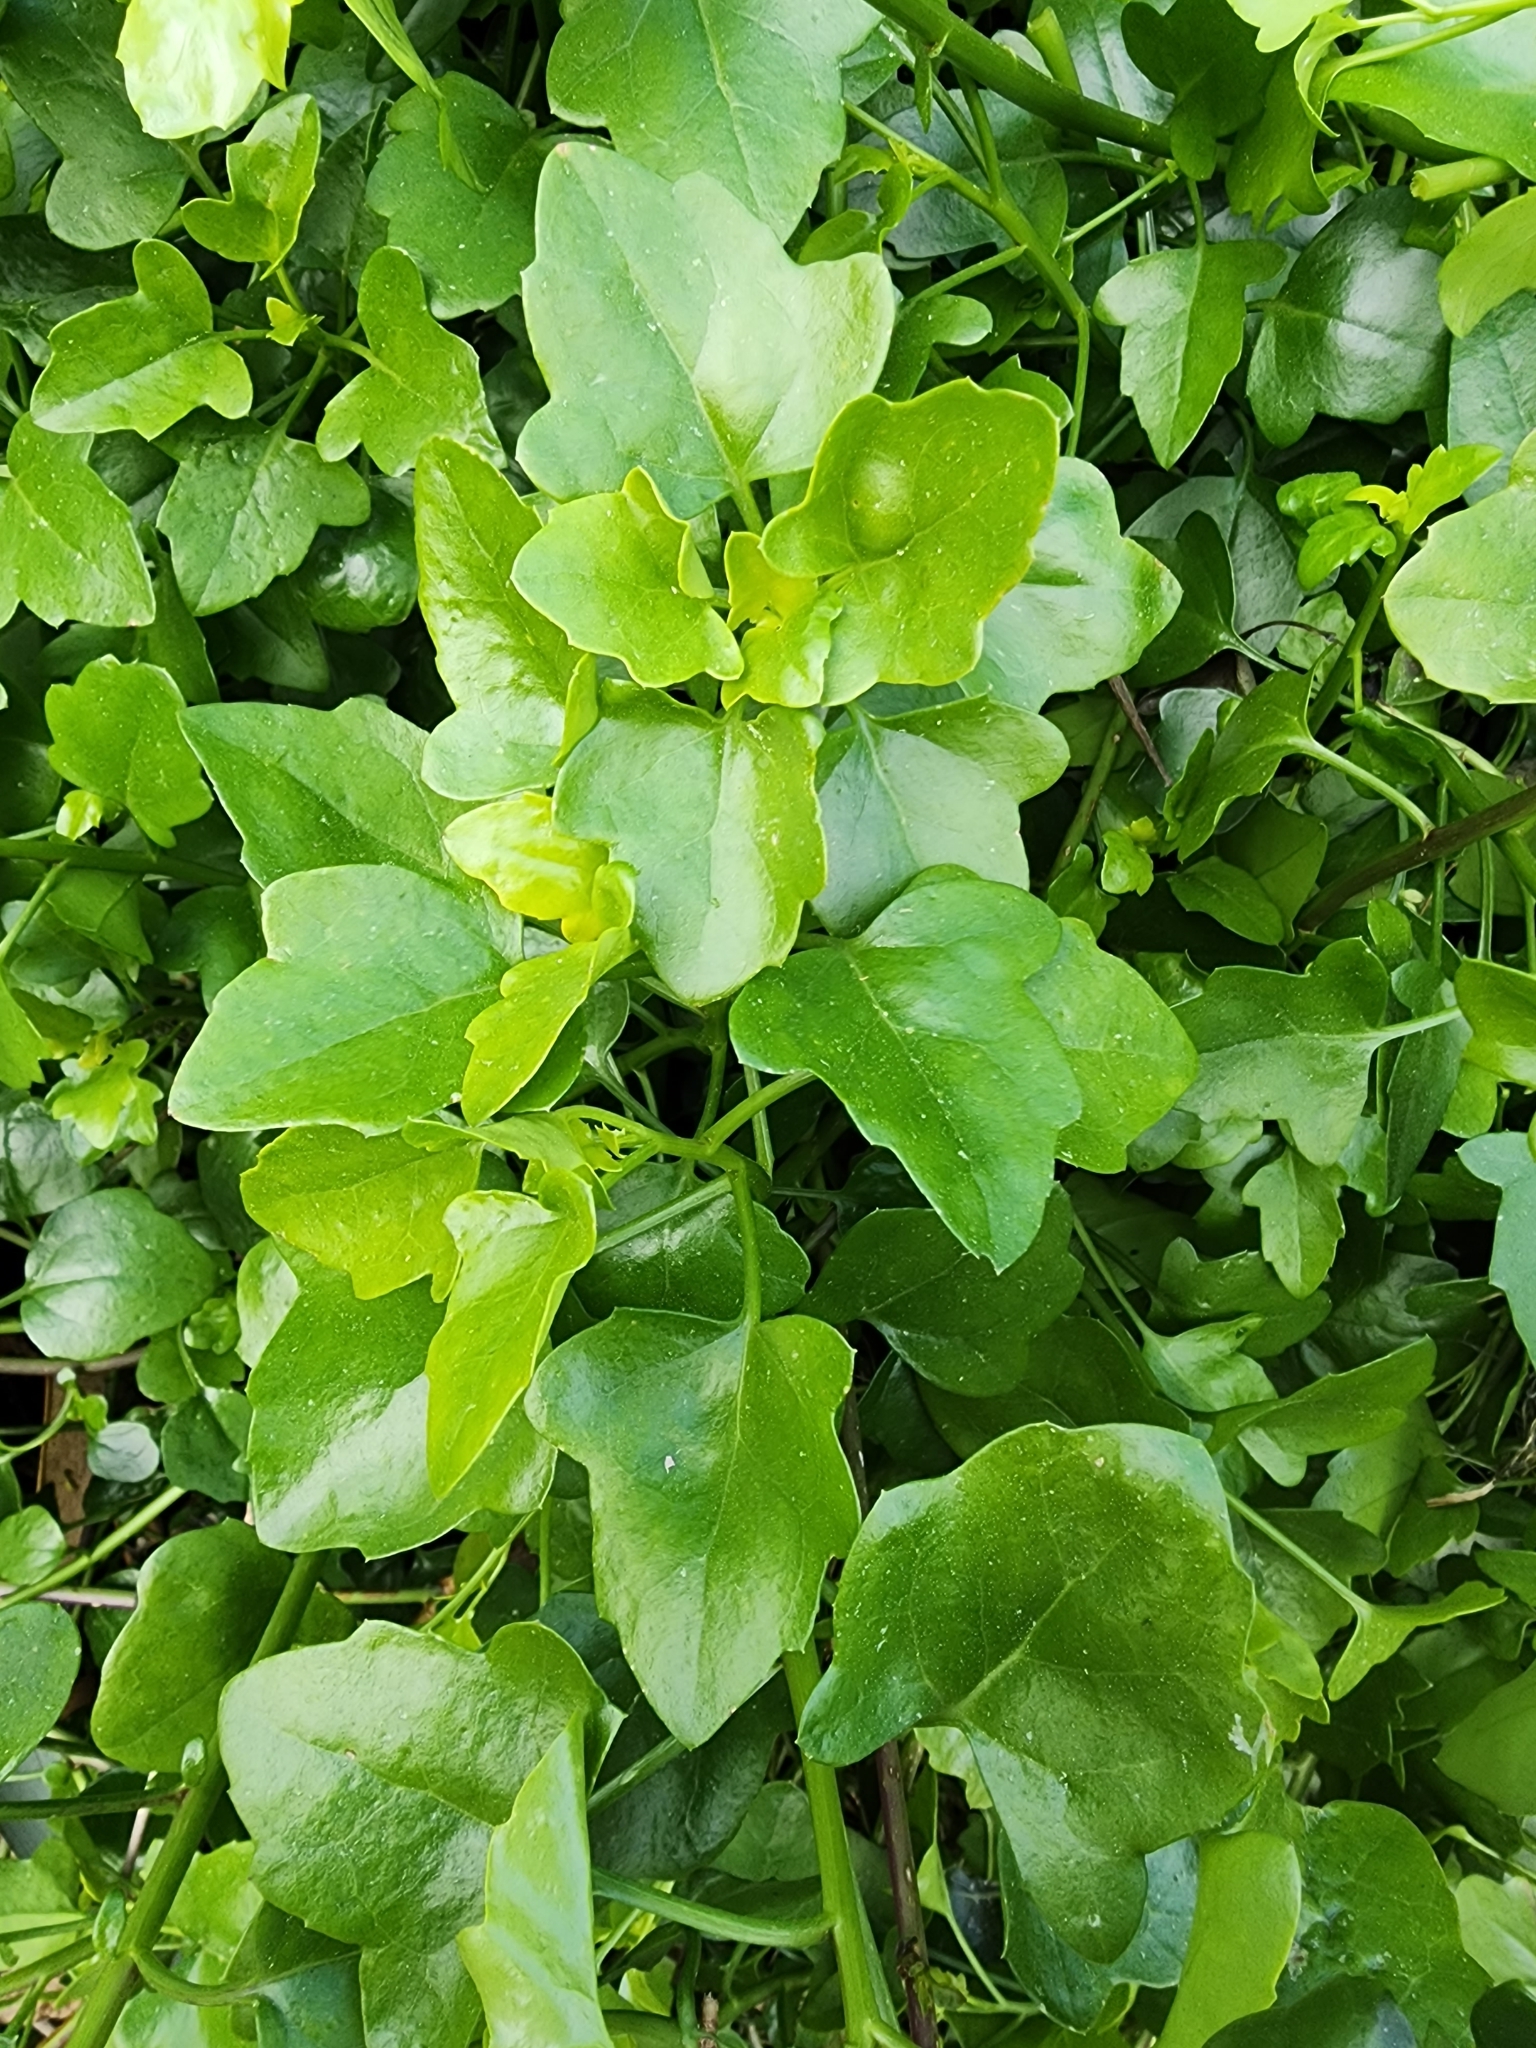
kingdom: Plantae
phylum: Tracheophyta
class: Magnoliopsida
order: Asterales
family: Asteraceae
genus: Senecio
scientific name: Senecio angulatus
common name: Climbing groundsel
